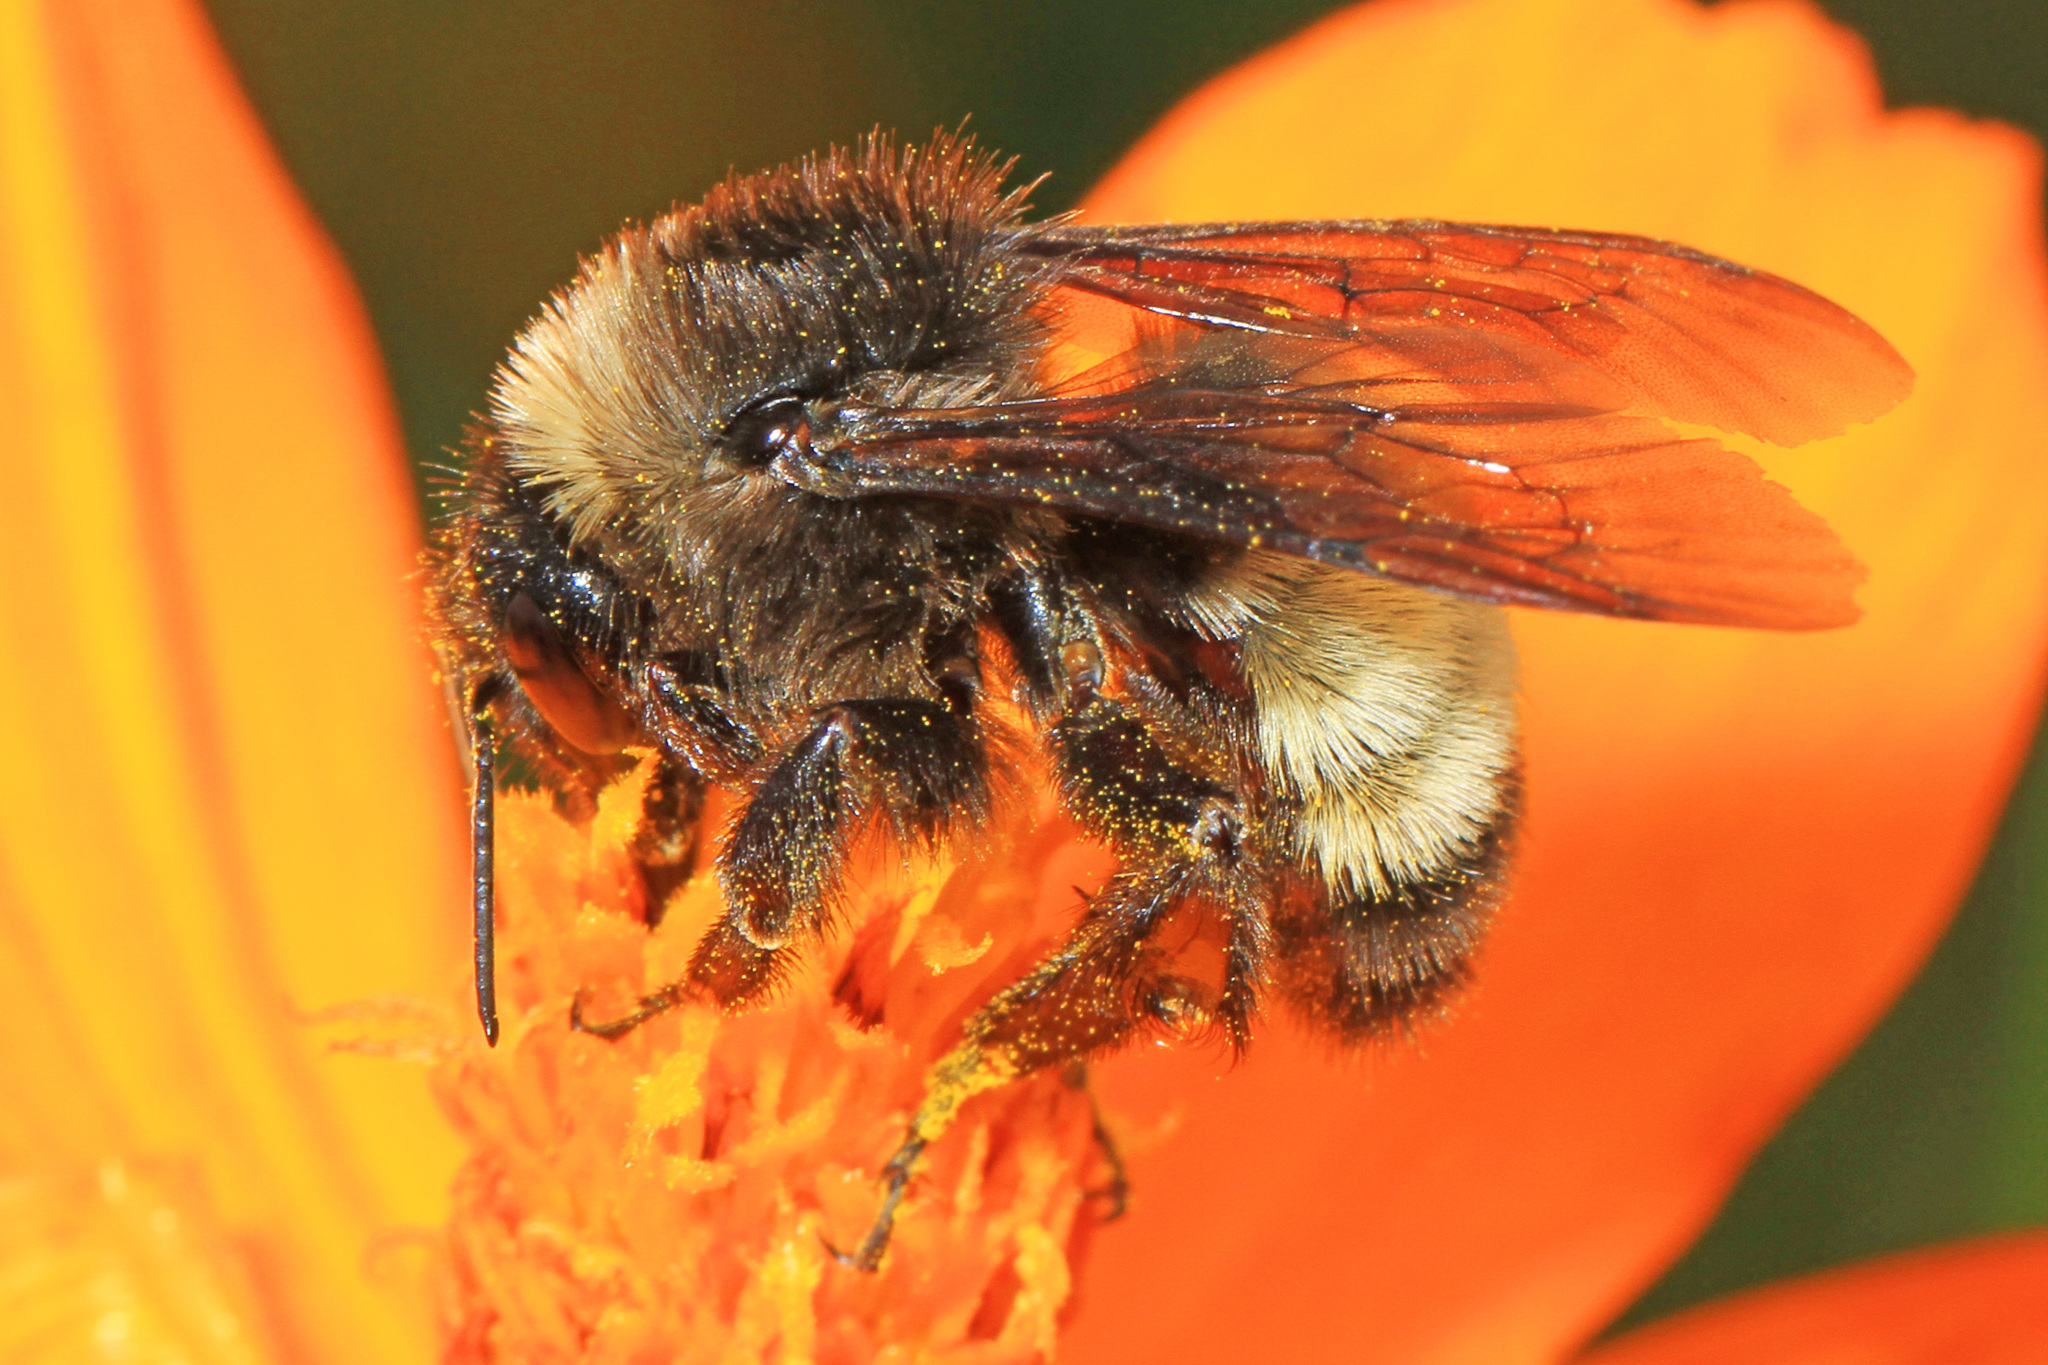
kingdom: Animalia
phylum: Arthropoda
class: Insecta
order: Hymenoptera
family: Apidae
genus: Bombus
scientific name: Bombus pensylvanicus
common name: Bumble bee
